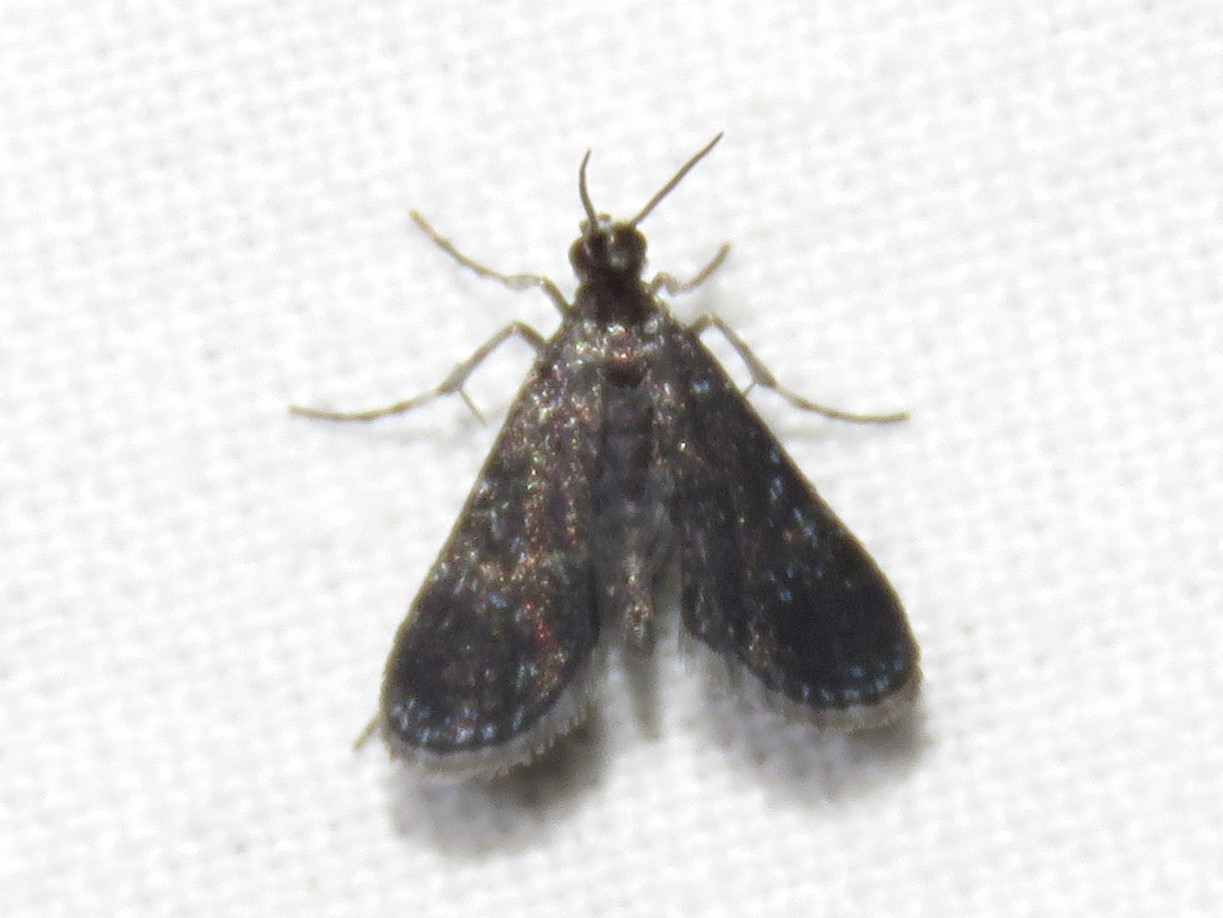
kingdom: Animalia
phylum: Arthropoda
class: Insecta
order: Lepidoptera
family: Crambidae
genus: Elophila
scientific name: Elophila tinealis
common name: Black duckweed moth
